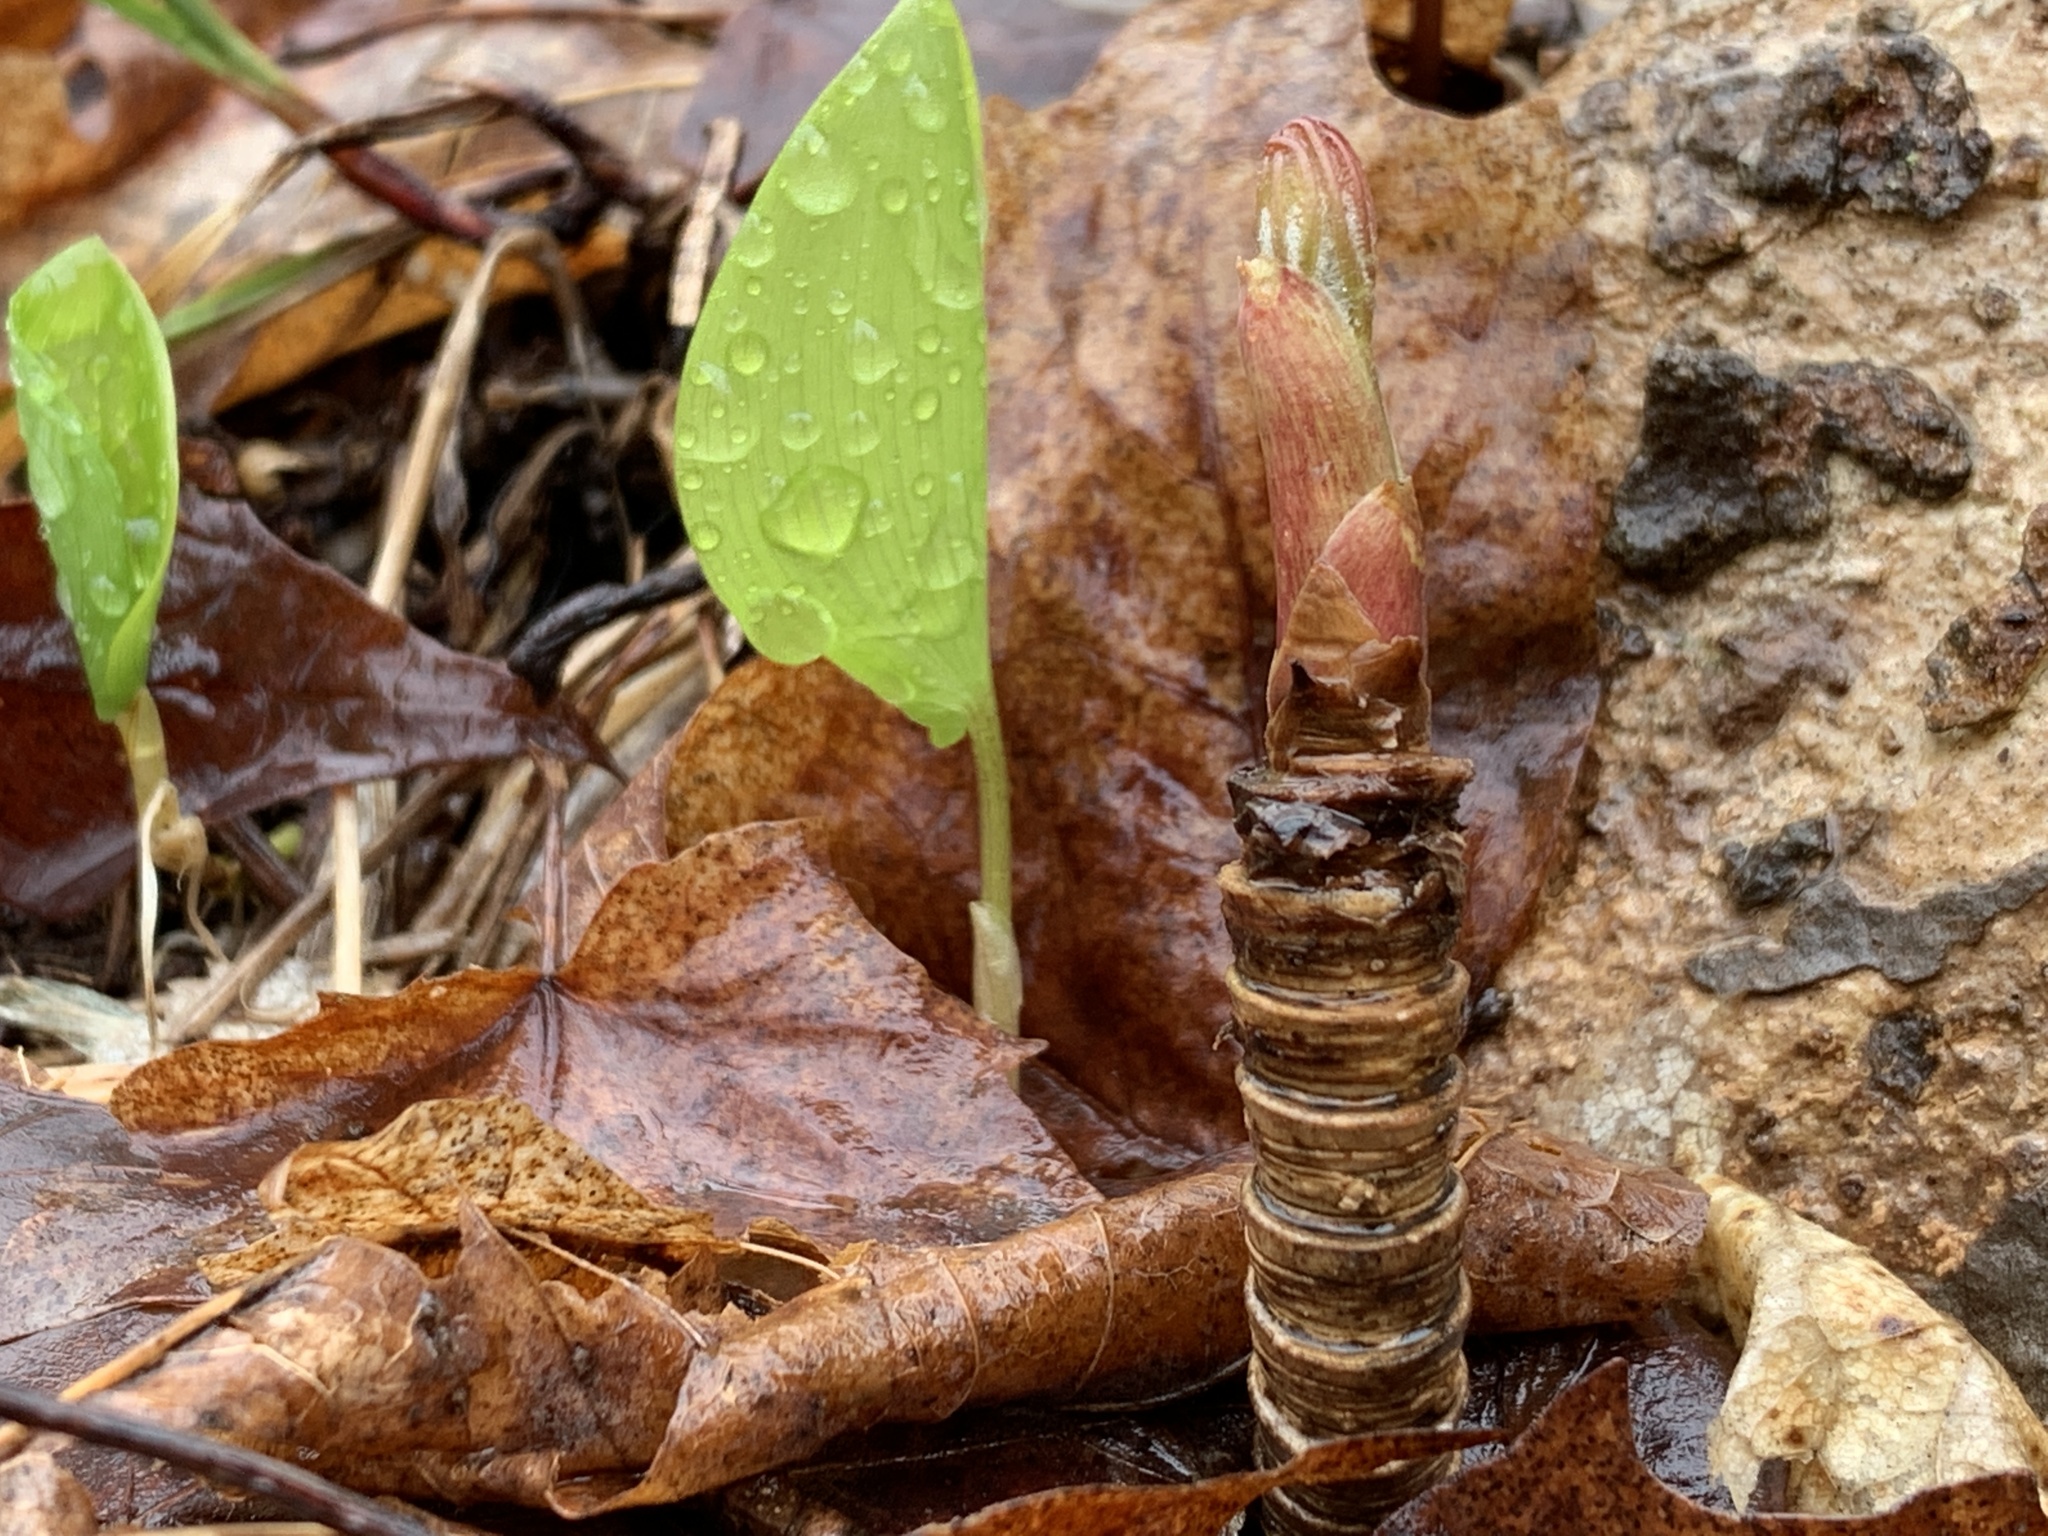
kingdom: Plantae
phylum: Tracheophyta
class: Magnoliopsida
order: Apiales
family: Araliaceae
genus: Aralia
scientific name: Aralia nudicaulis
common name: Wild sarsaparilla
